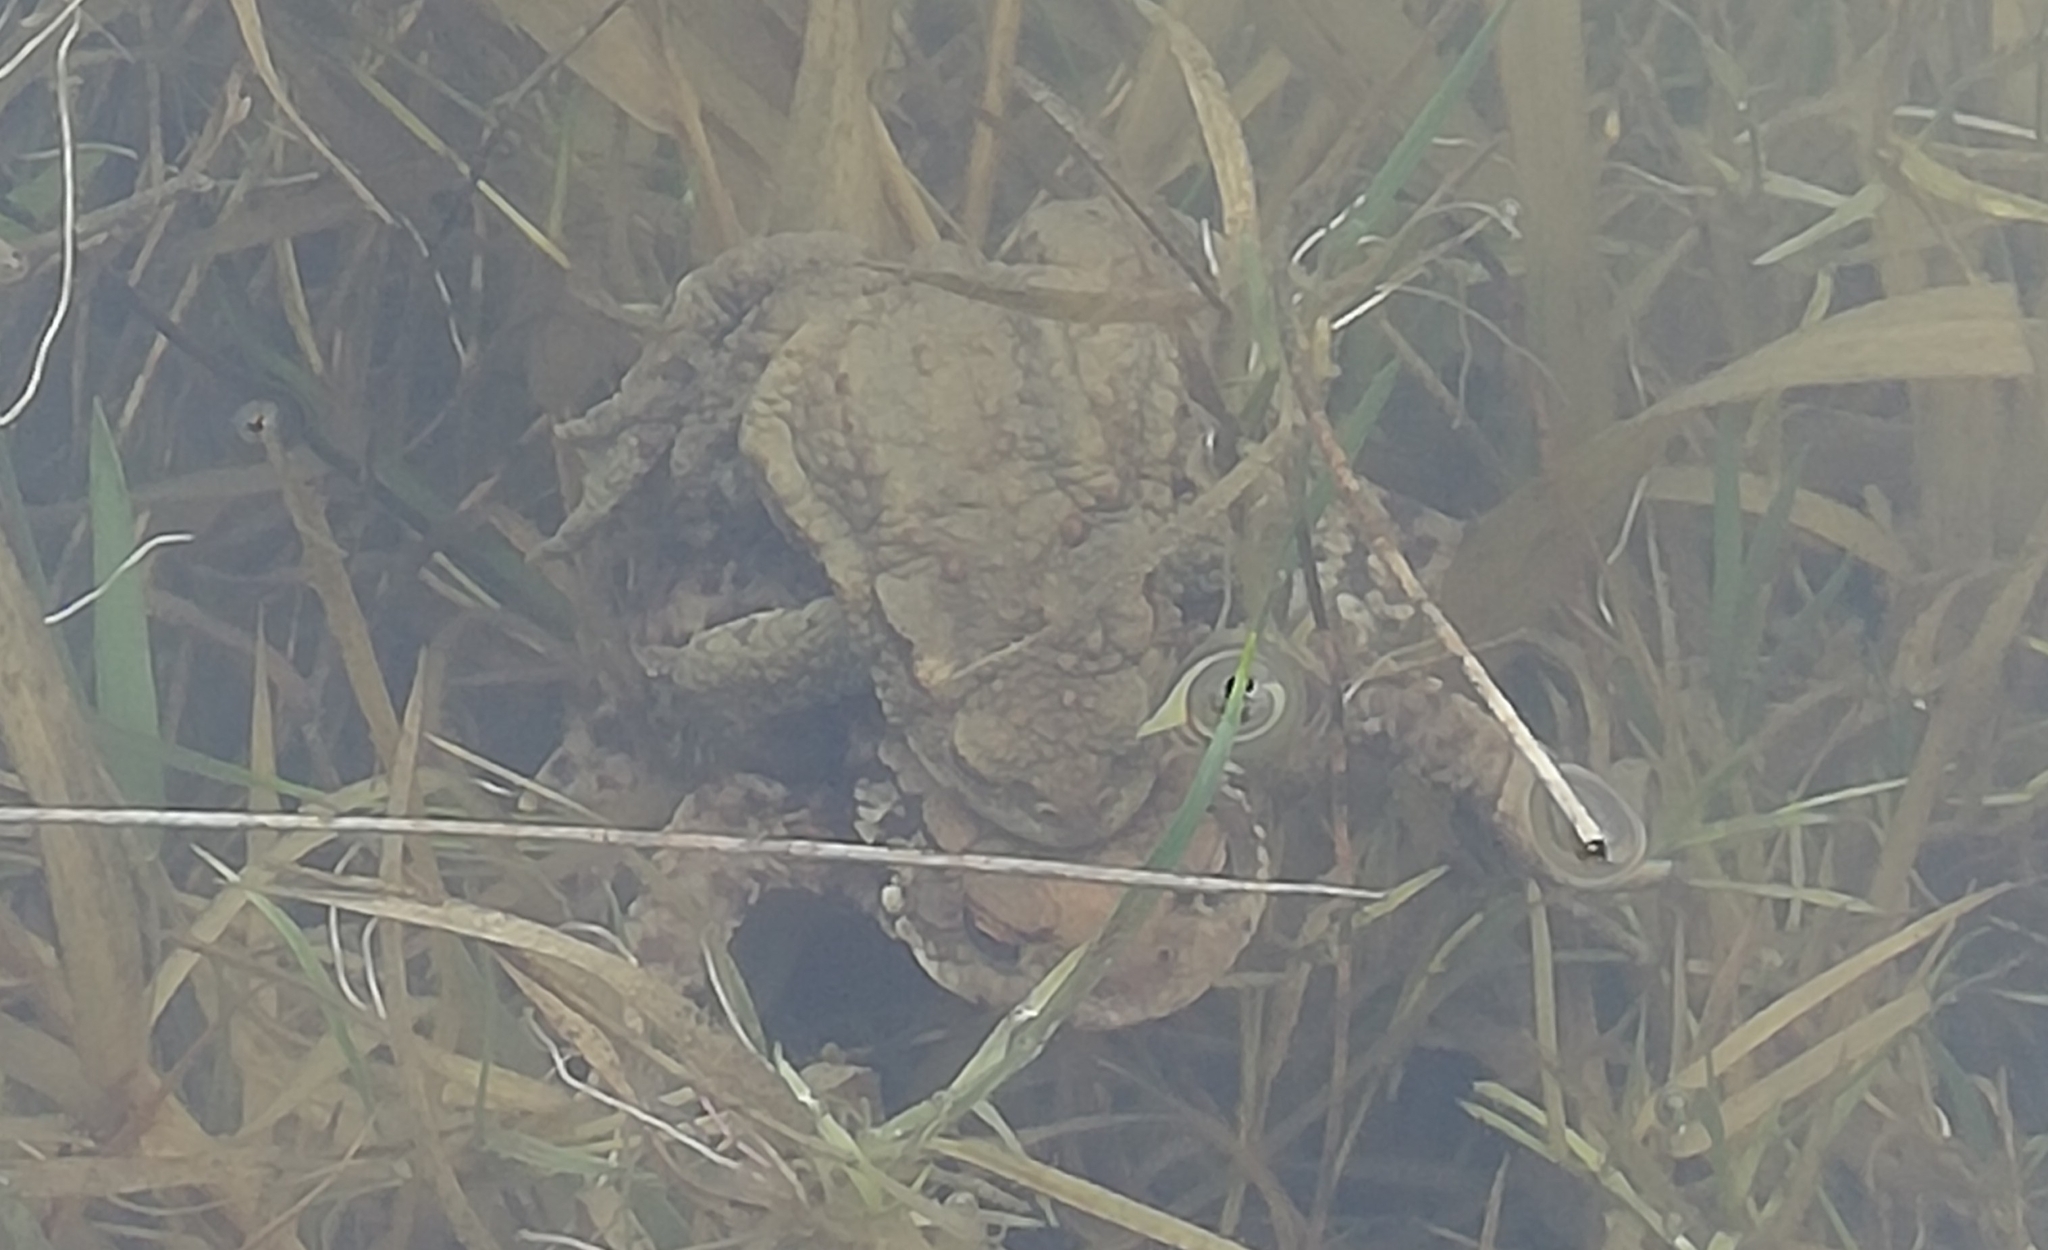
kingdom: Animalia
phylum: Chordata
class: Amphibia
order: Anura
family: Bufonidae
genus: Bufo
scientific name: Bufo bufo
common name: Common toad
